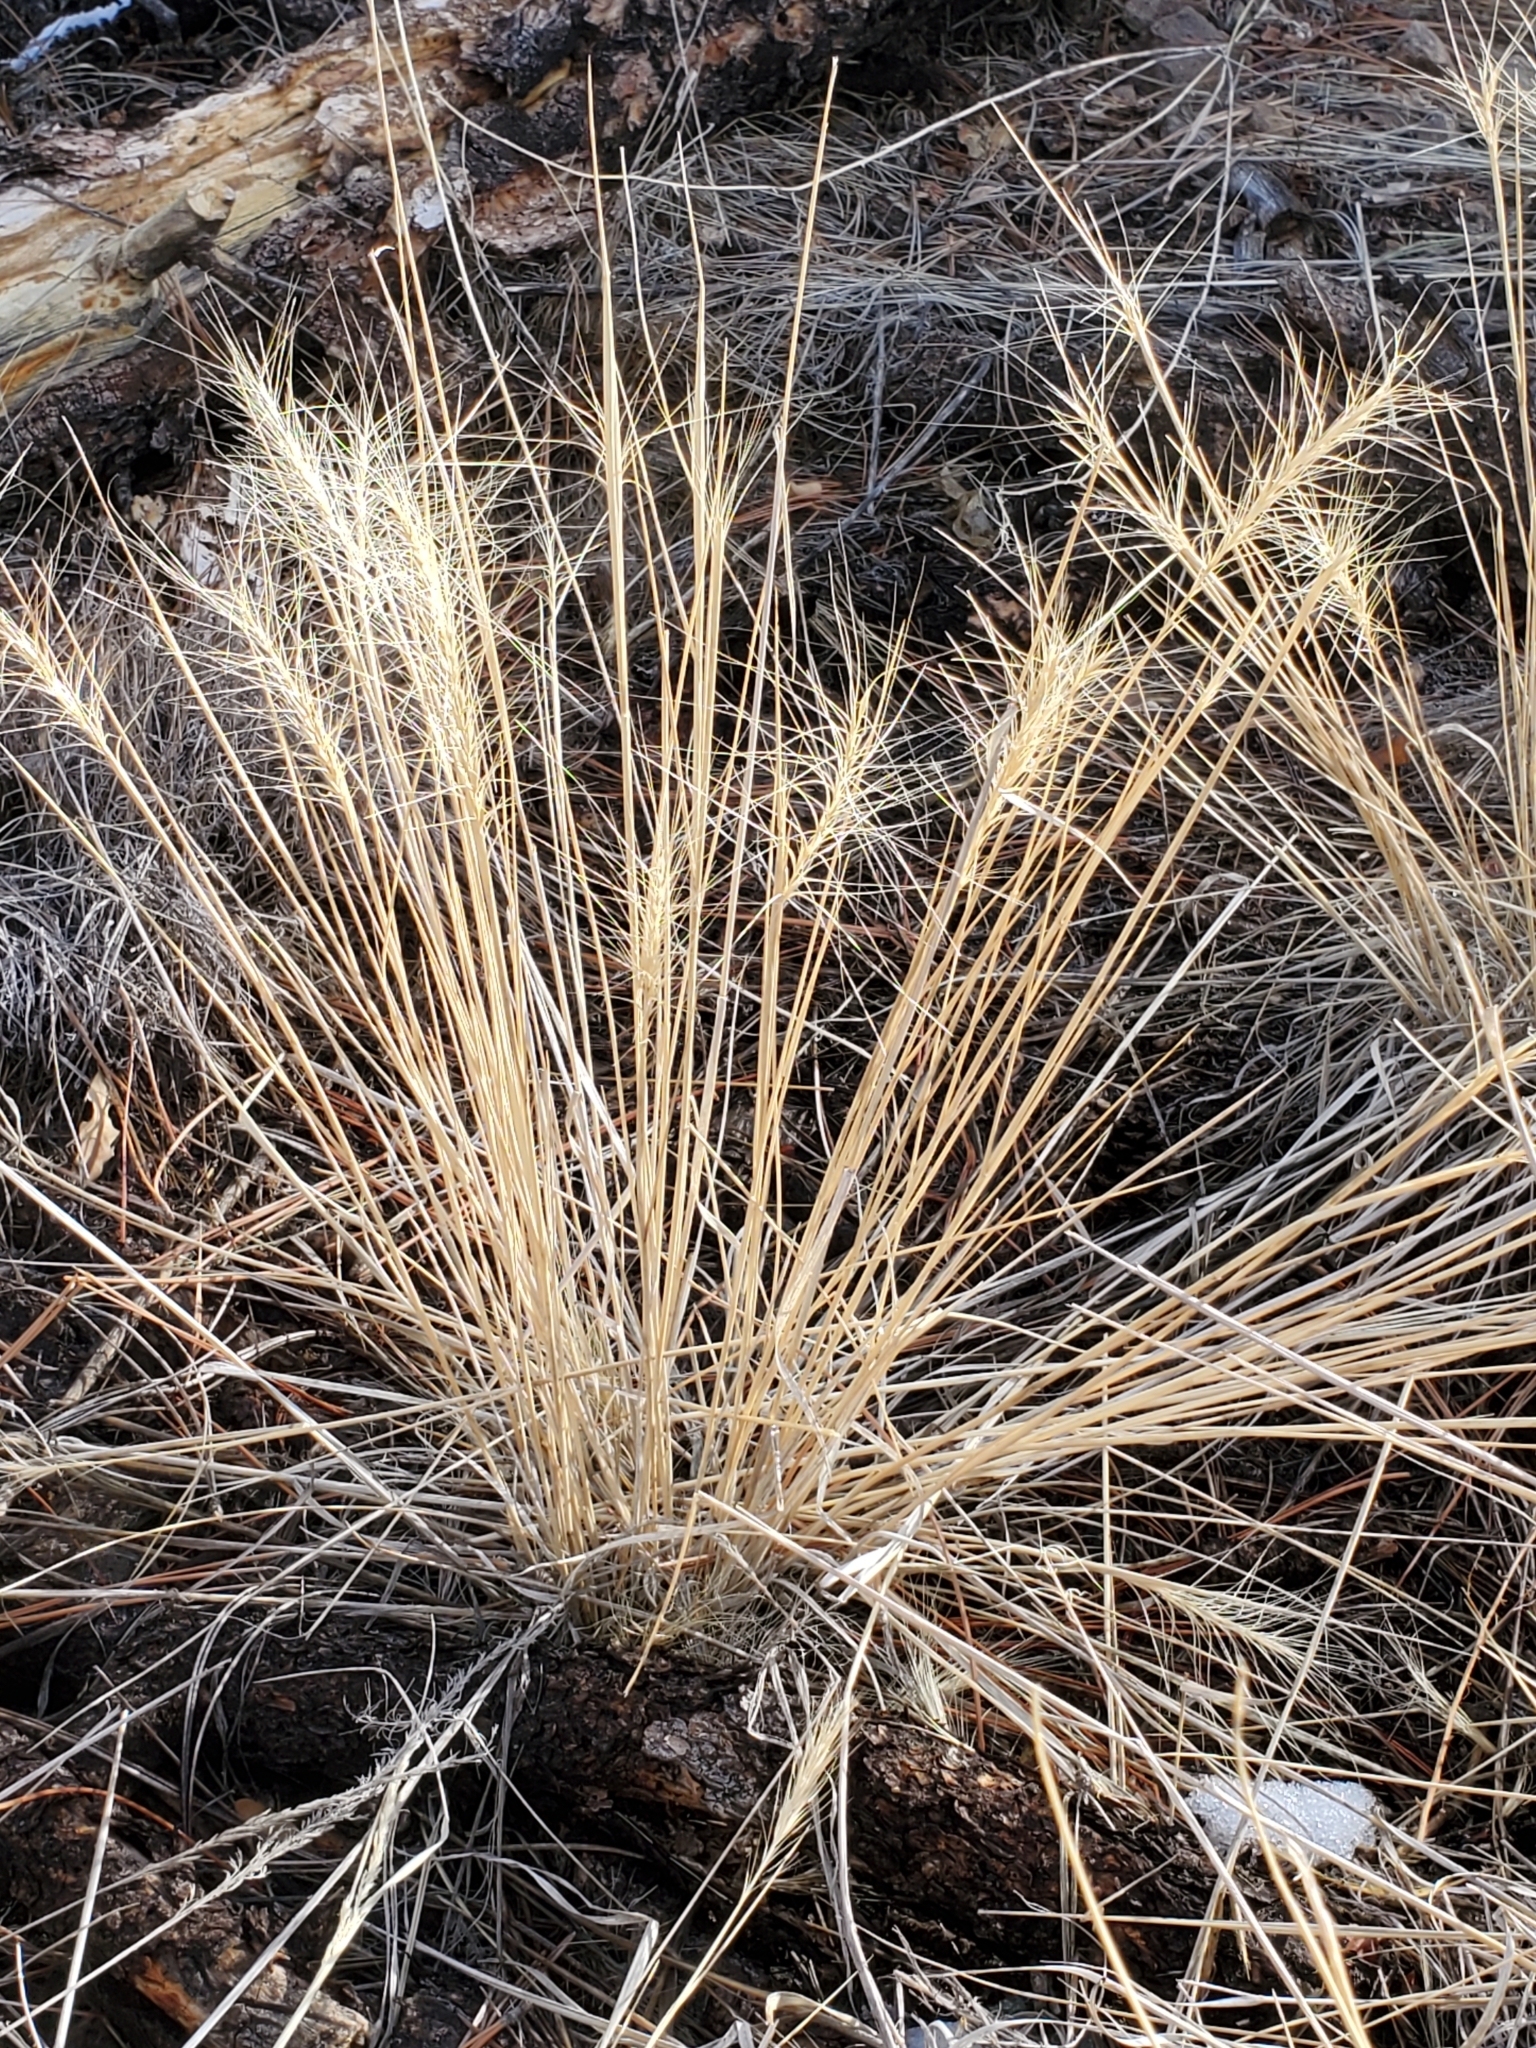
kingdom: Plantae
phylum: Tracheophyta
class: Liliopsida
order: Poales
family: Poaceae
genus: Elymus
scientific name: Elymus elymoides
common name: Bottlebrush squirreltail
